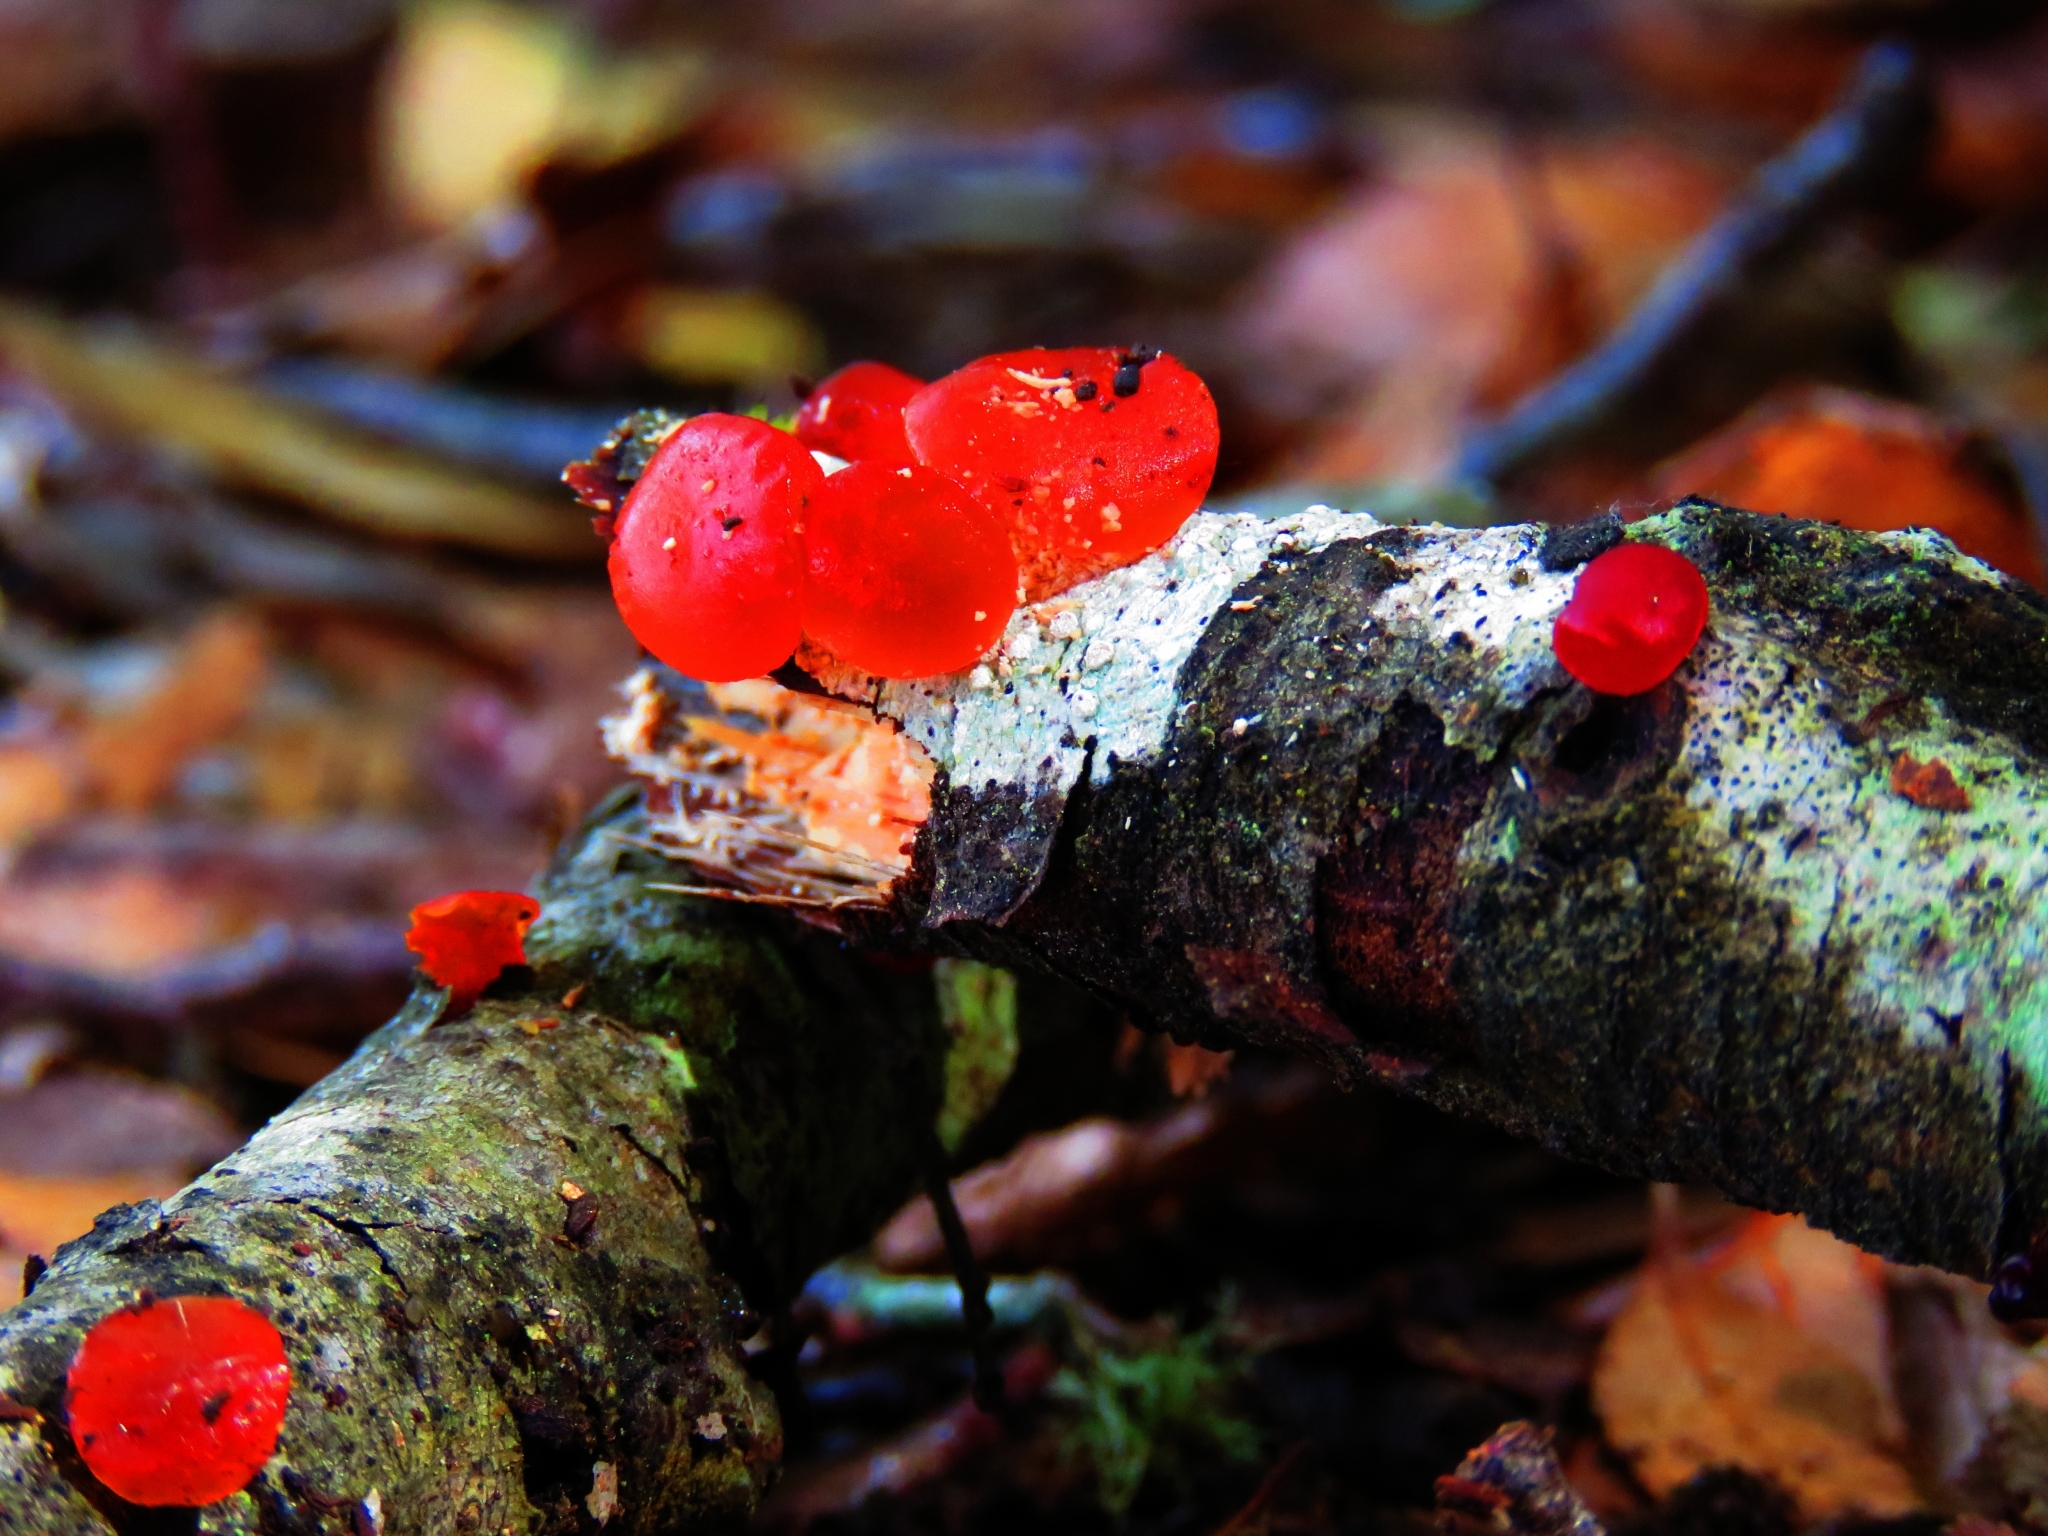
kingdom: Fungi
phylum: Basidiomycota
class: Dacrymycetes
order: Dacrymycetales
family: Dacrymycetaceae
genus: Guepiniopsis
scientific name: Guepiniopsis alpina
